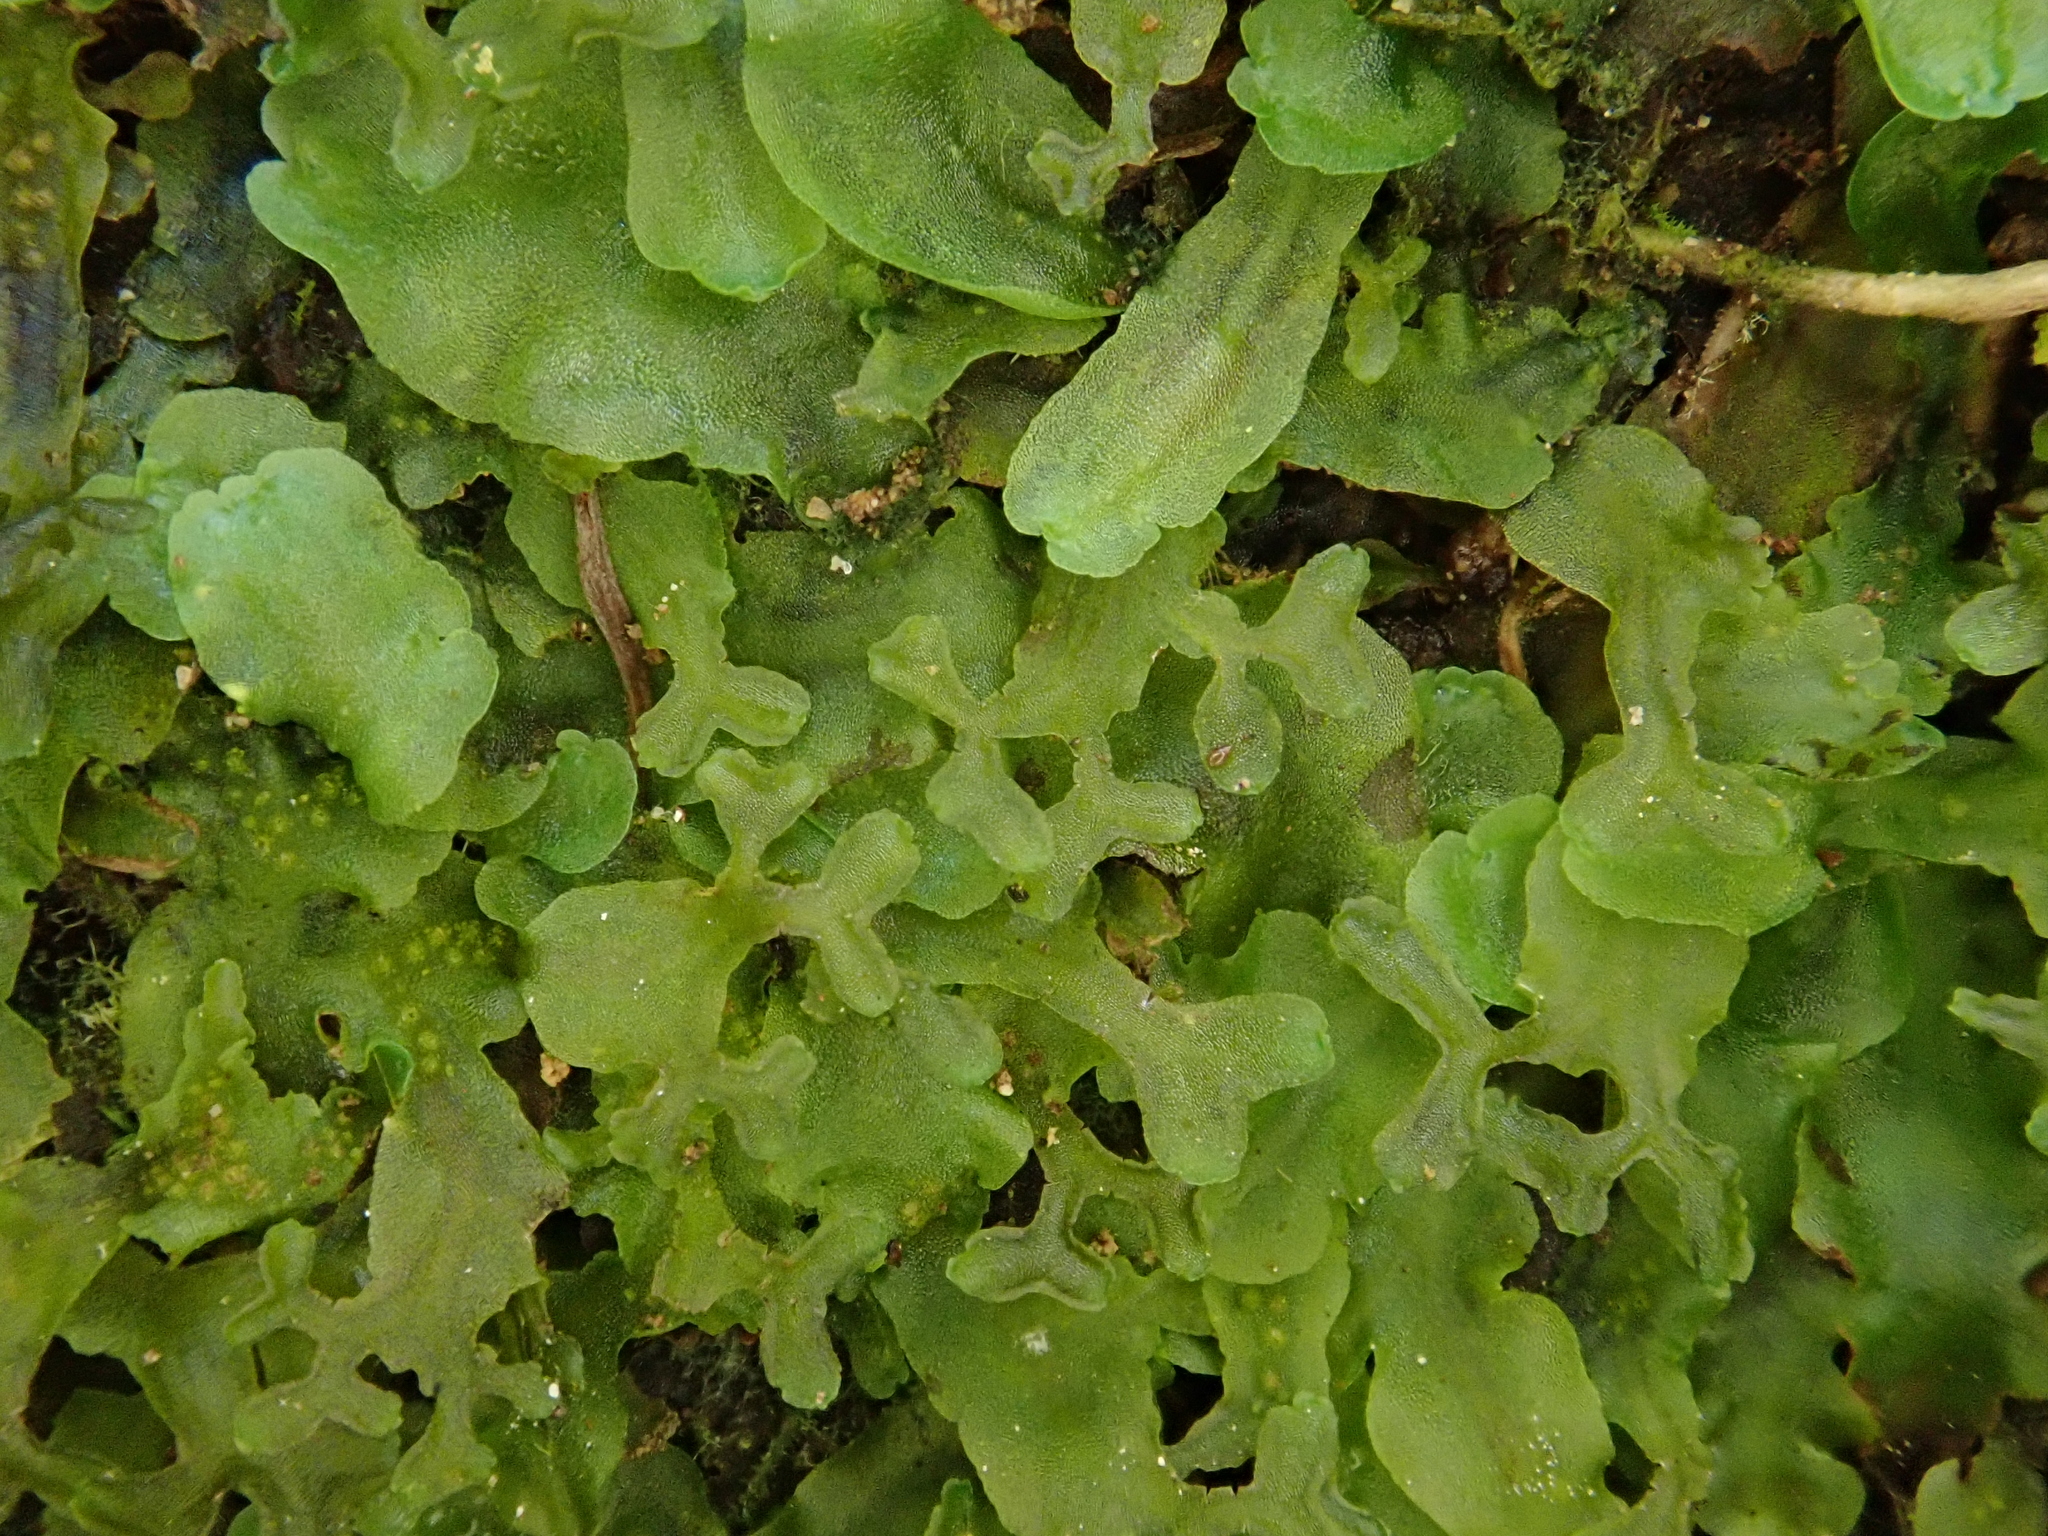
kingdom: Plantae
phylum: Marchantiophyta
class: Jungermanniopsida
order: Pelliales
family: Pelliaceae
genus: Apopellia
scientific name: Apopellia endiviifolia
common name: Endive pellia
